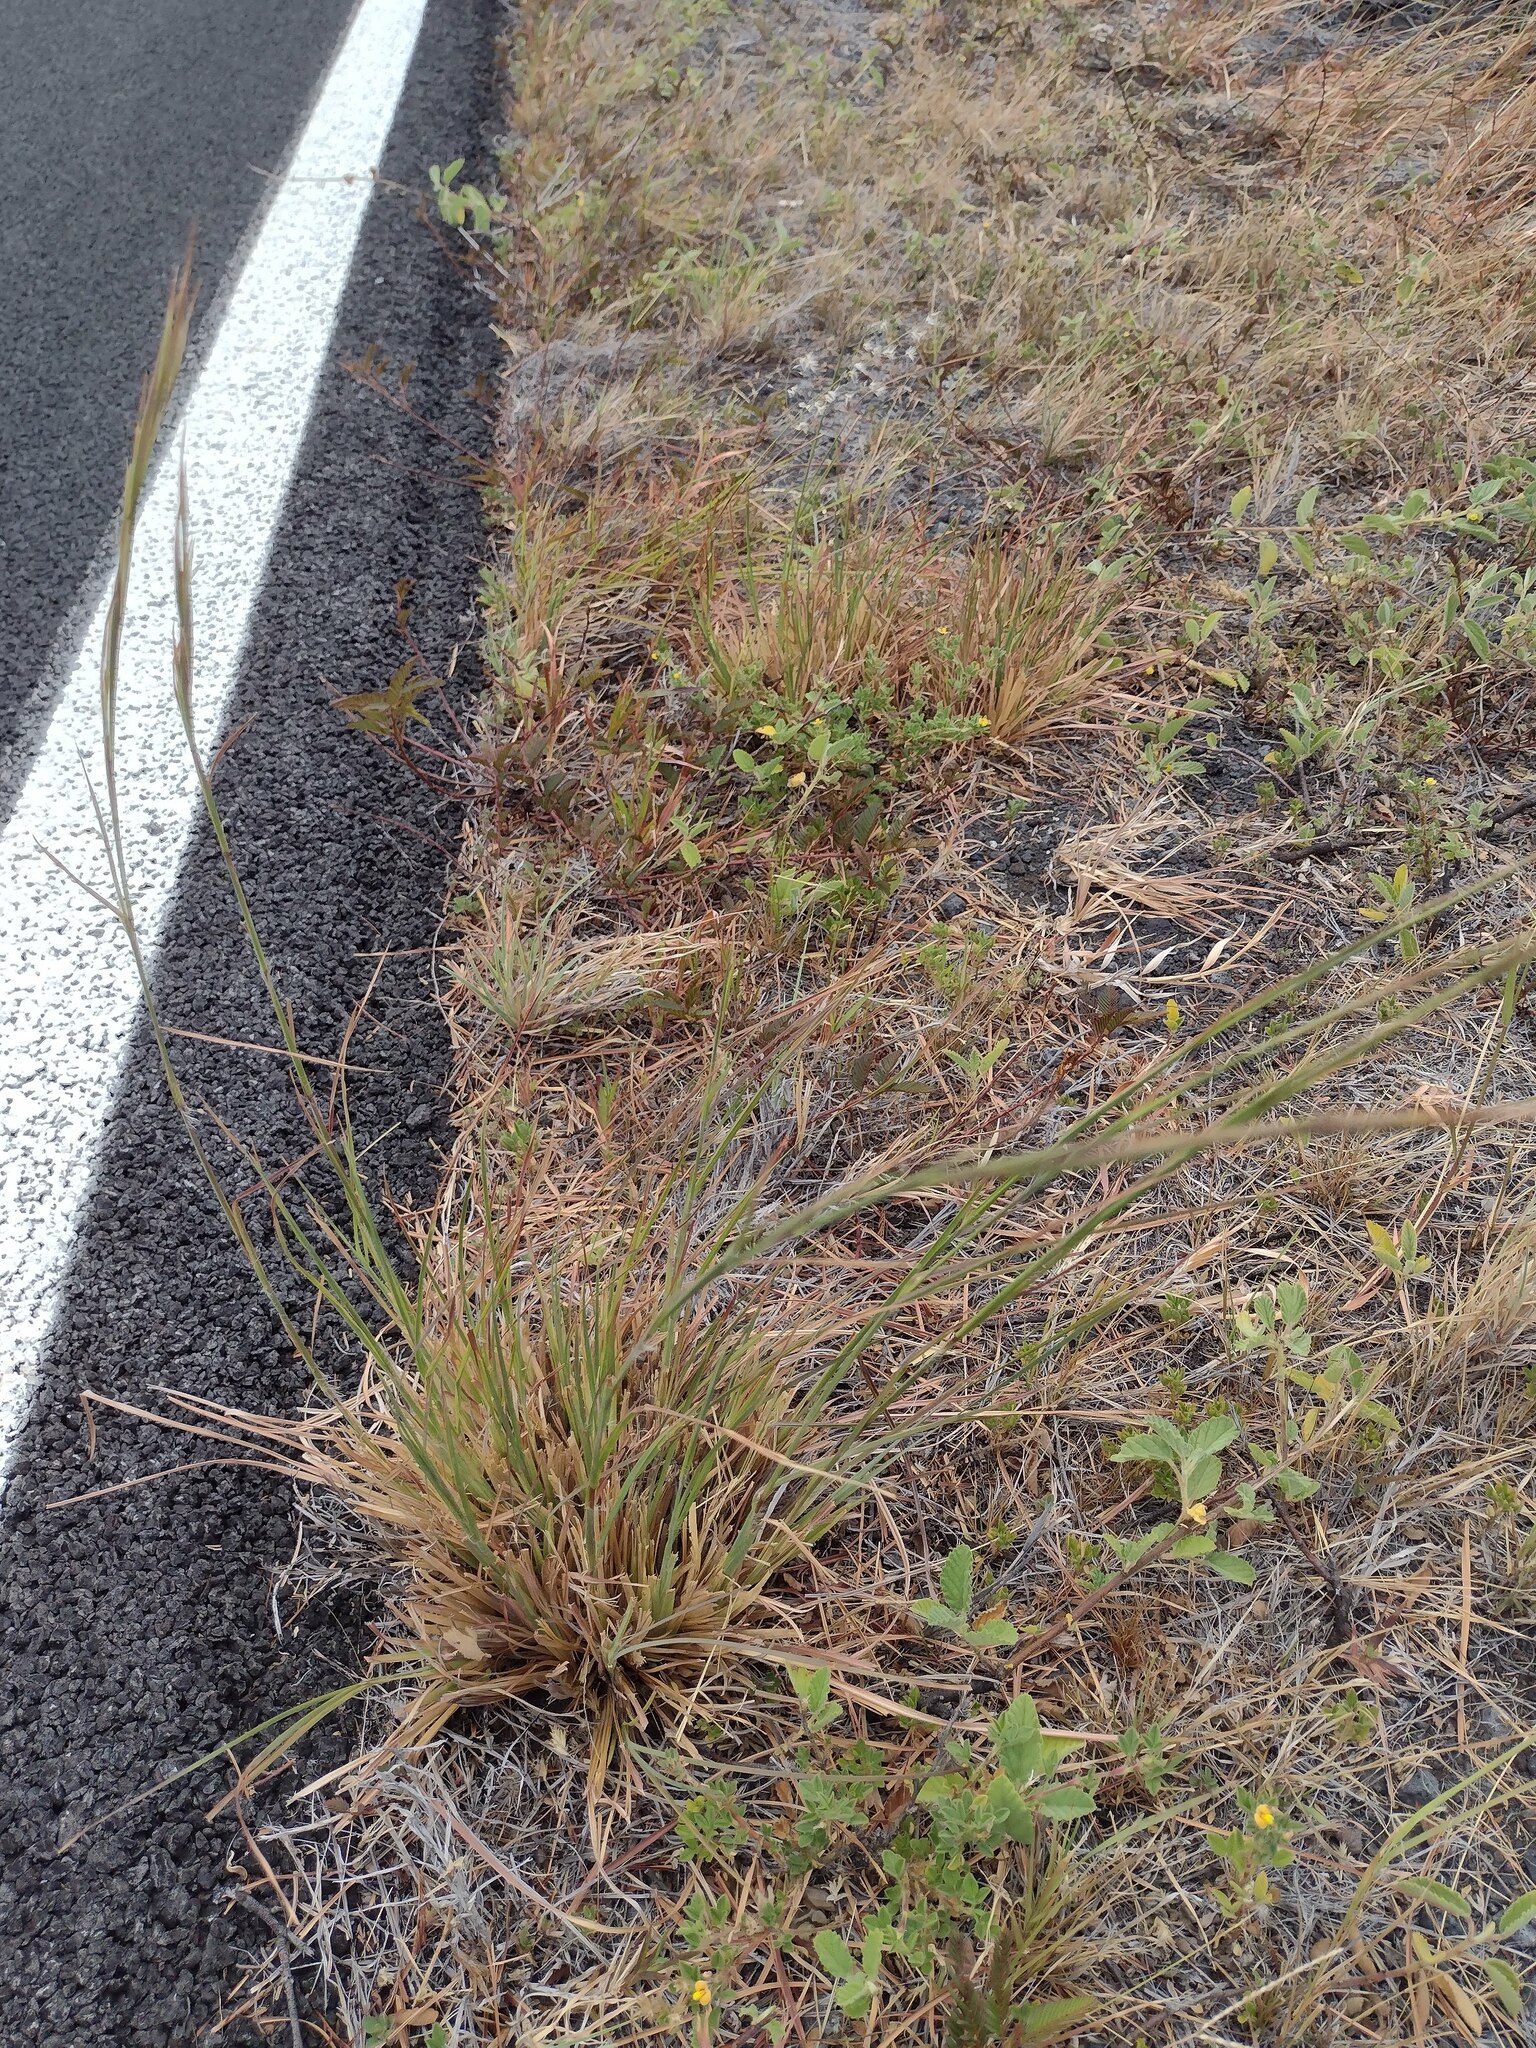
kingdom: Plantae
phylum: Tracheophyta
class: Liliopsida
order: Poales
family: Poaceae
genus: Andropogon
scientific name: Andropogon virginicus
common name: Broomsedge bluestem
